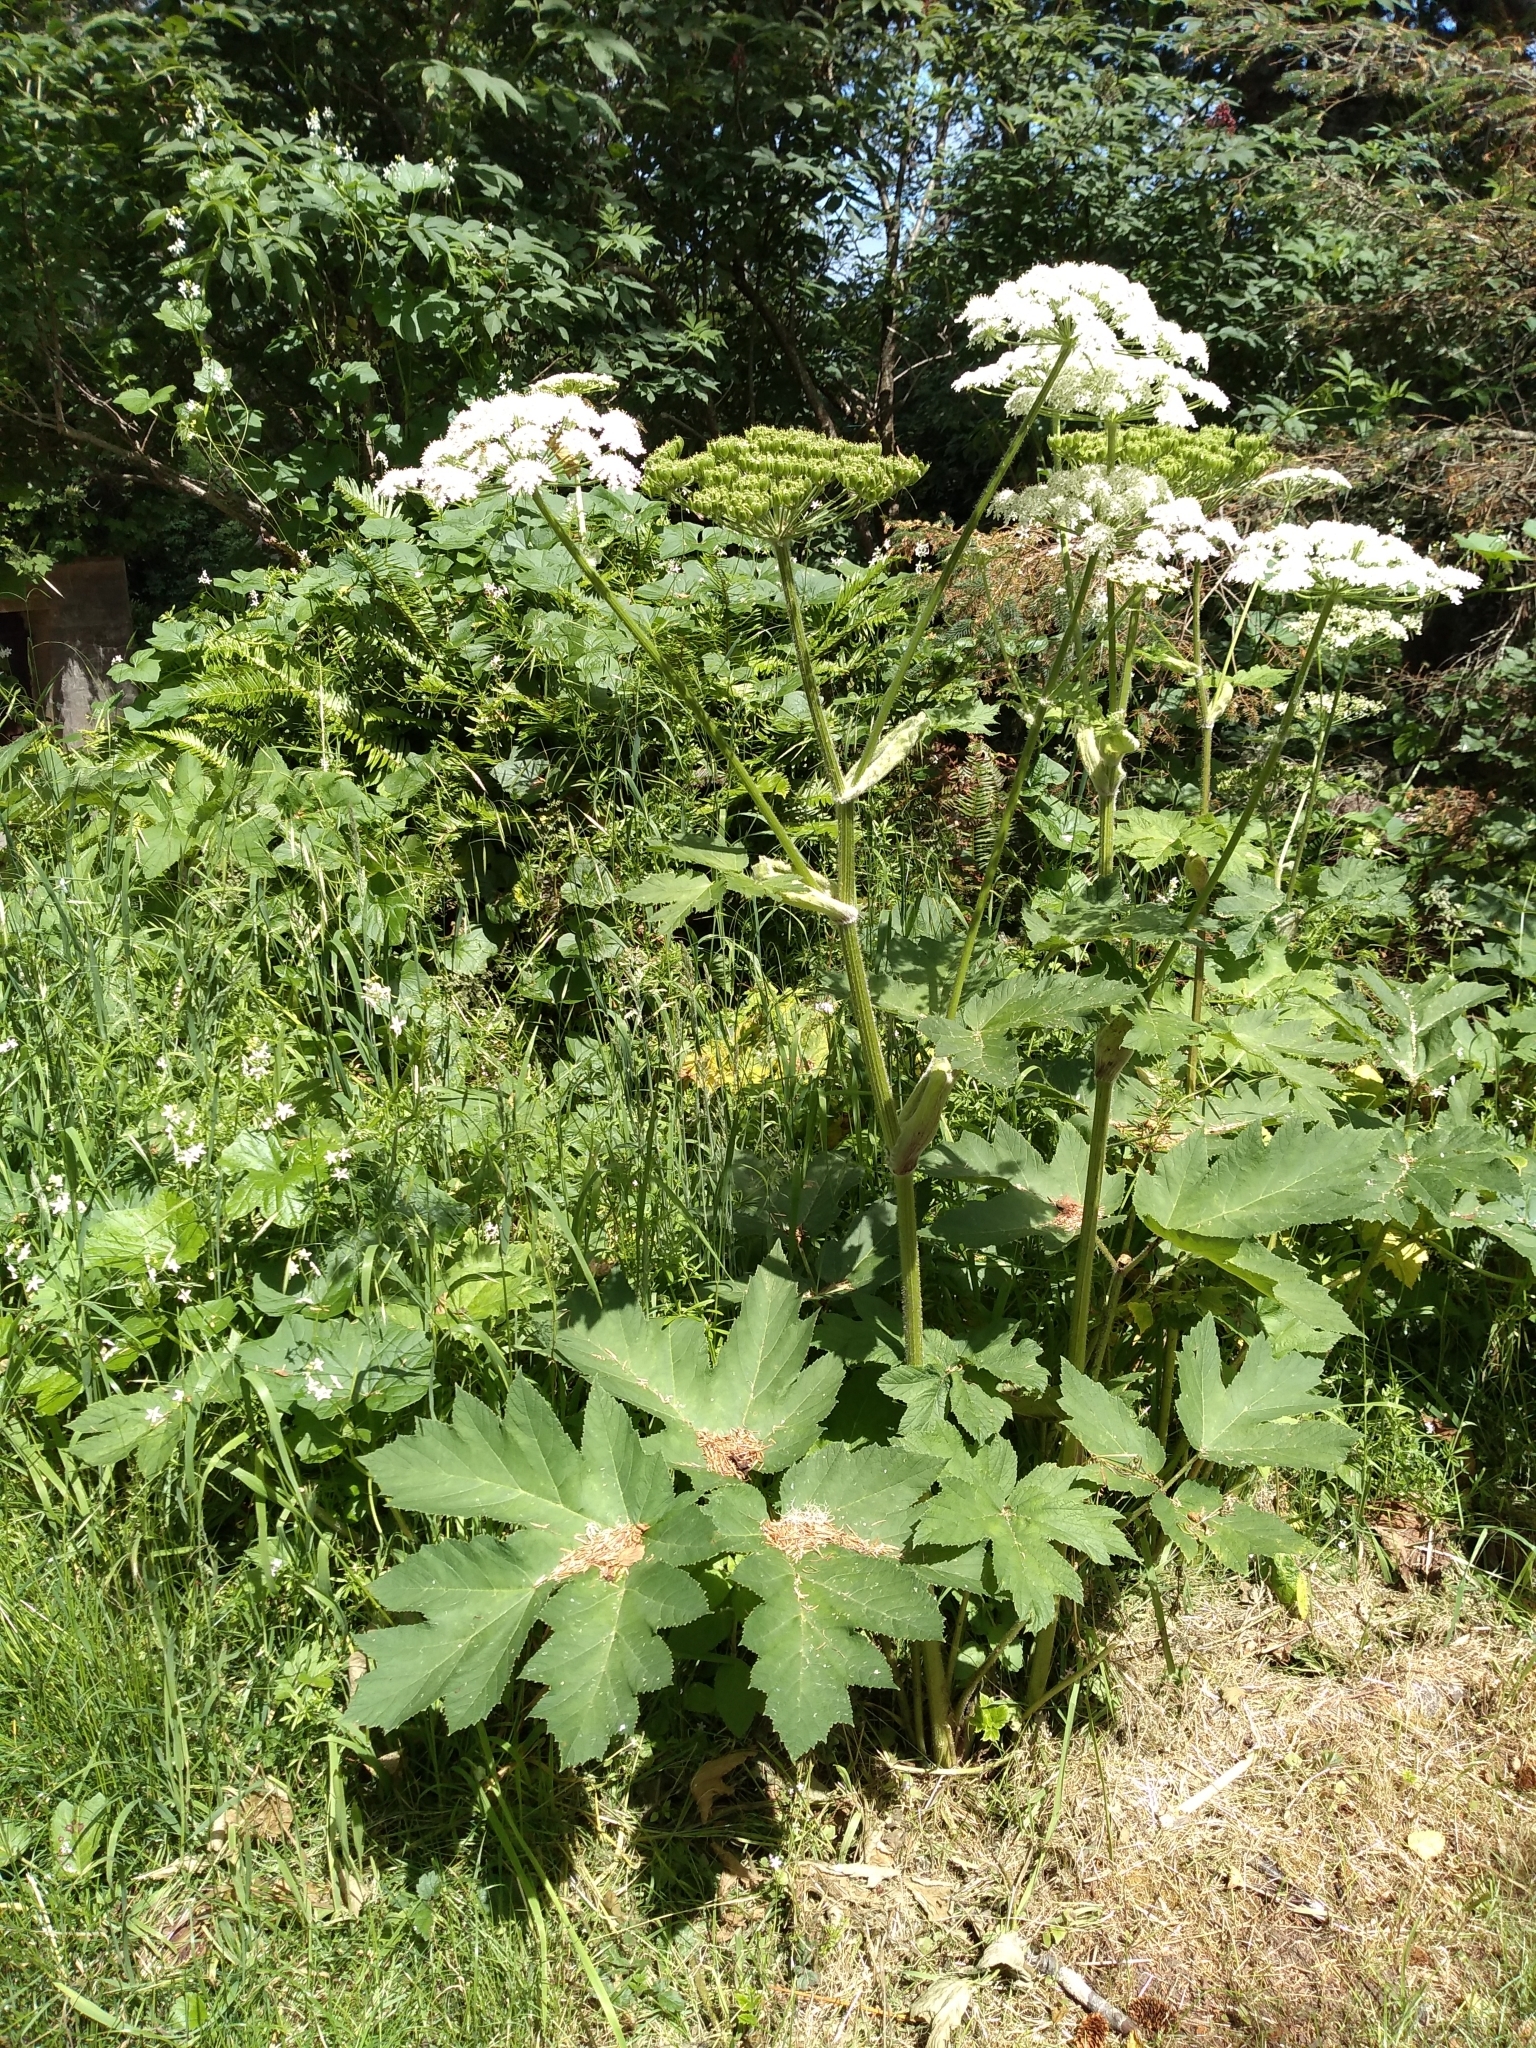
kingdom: Plantae
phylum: Tracheophyta
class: Magnoliopsida
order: Apiales
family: Apiaceae
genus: Heracleum
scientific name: Heracleum maximum
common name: American cow parsnip
